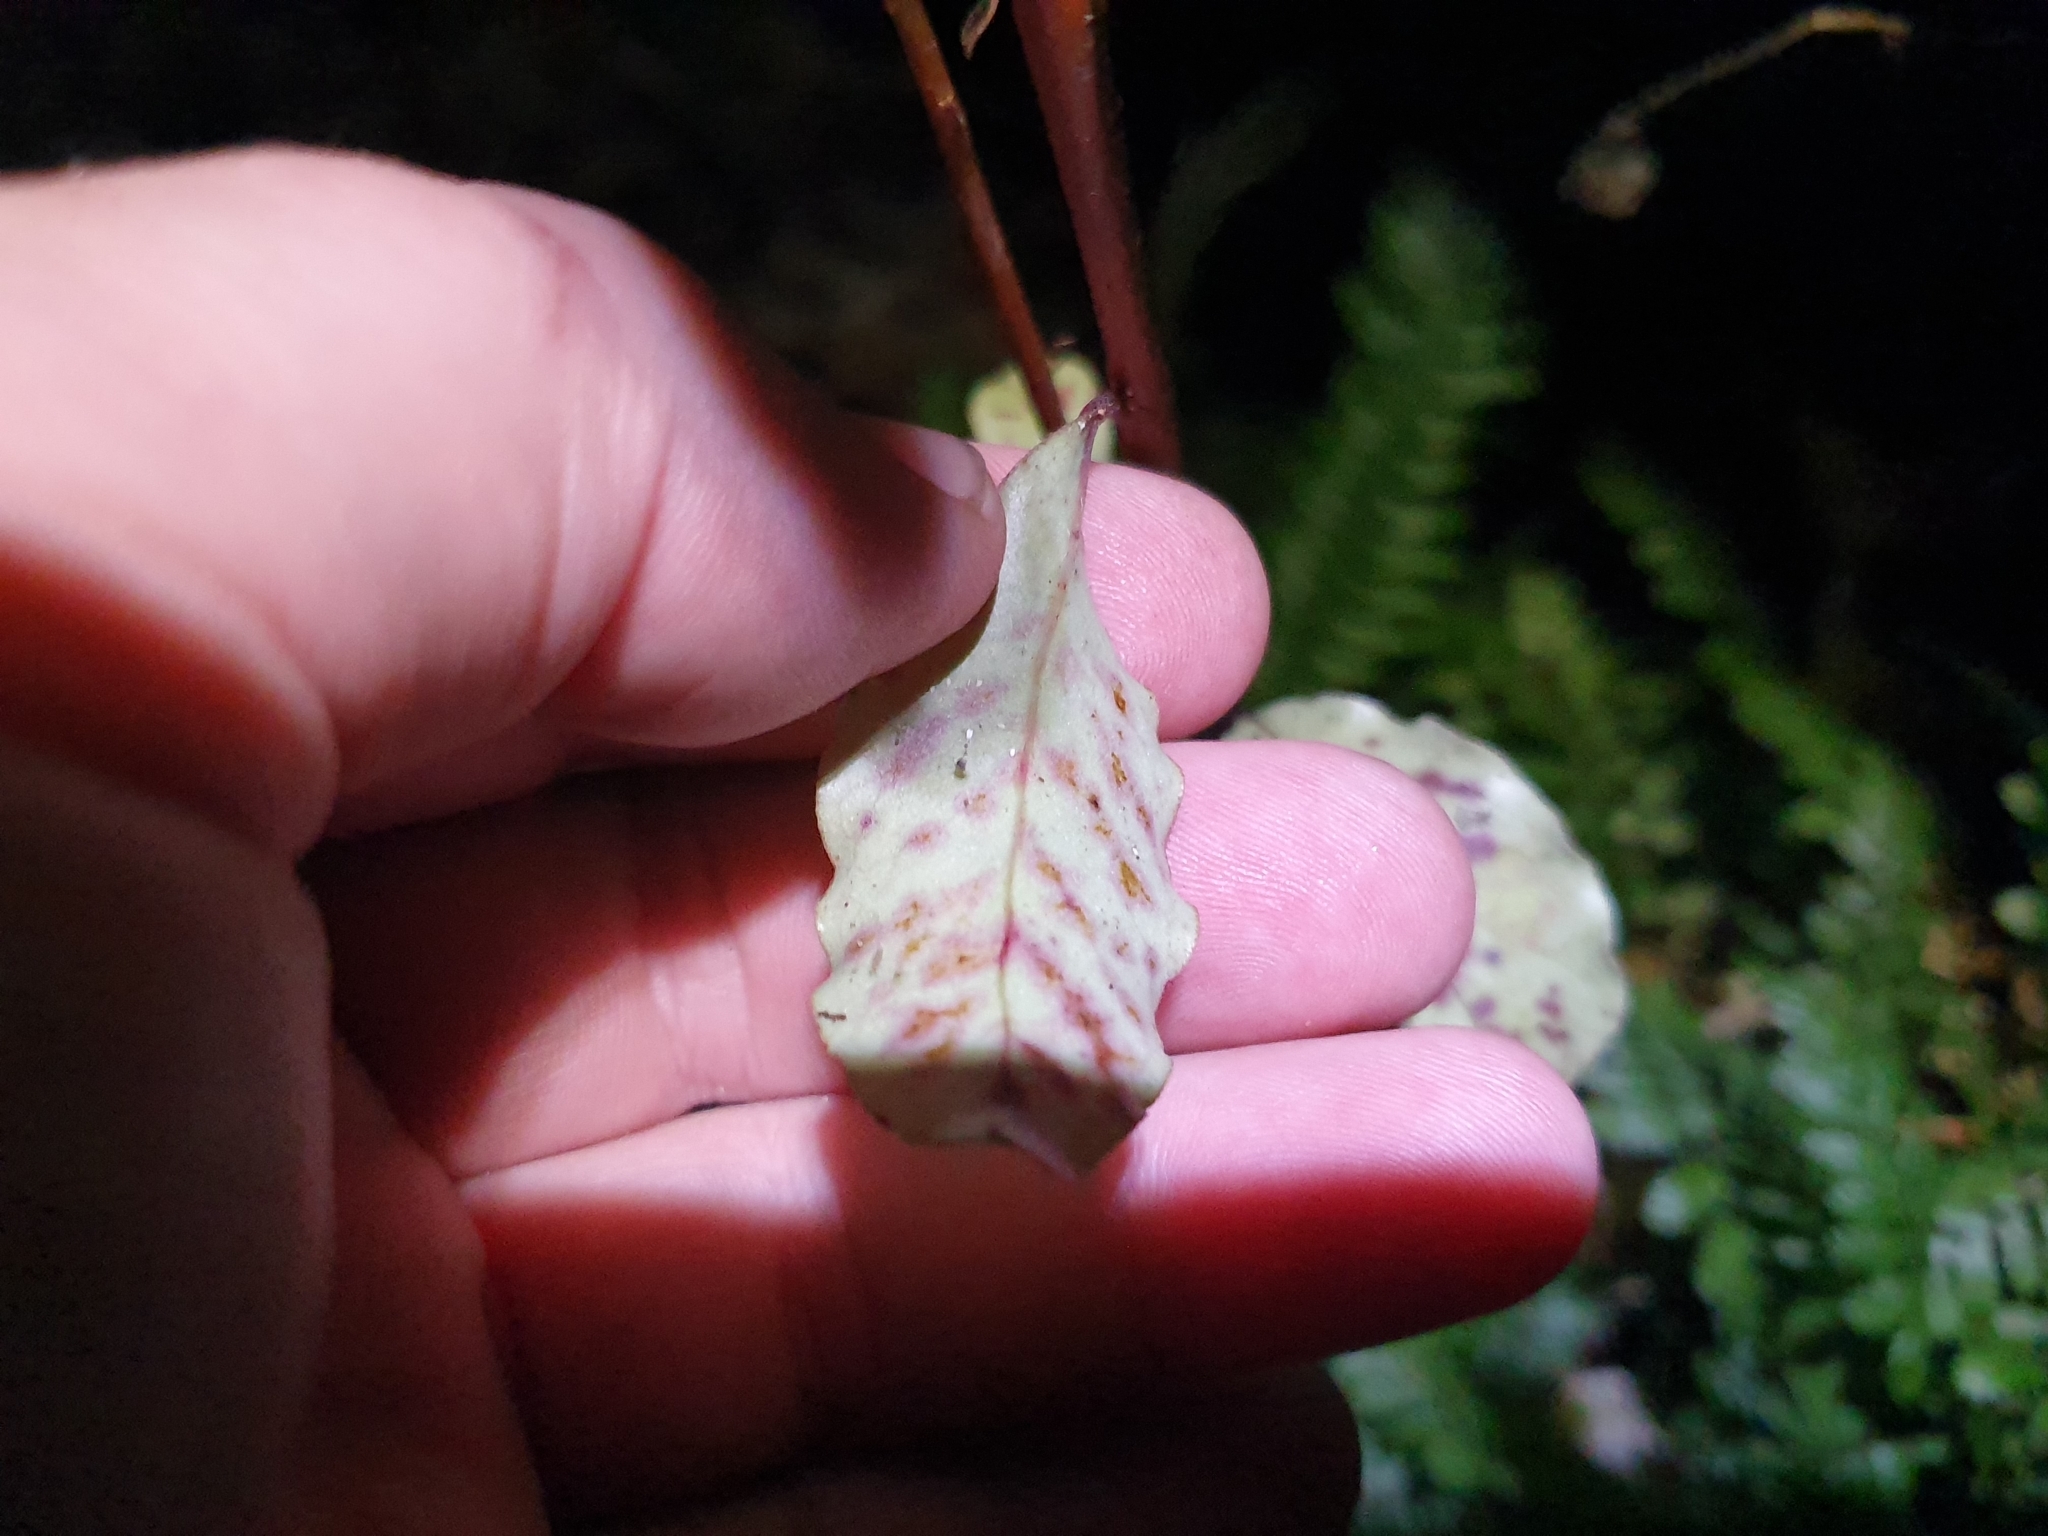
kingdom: Plantae
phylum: Tracheophyta
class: Magnoliopsida
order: Ericales
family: Primulaceae
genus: Myrsine
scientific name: Myrsine australis
